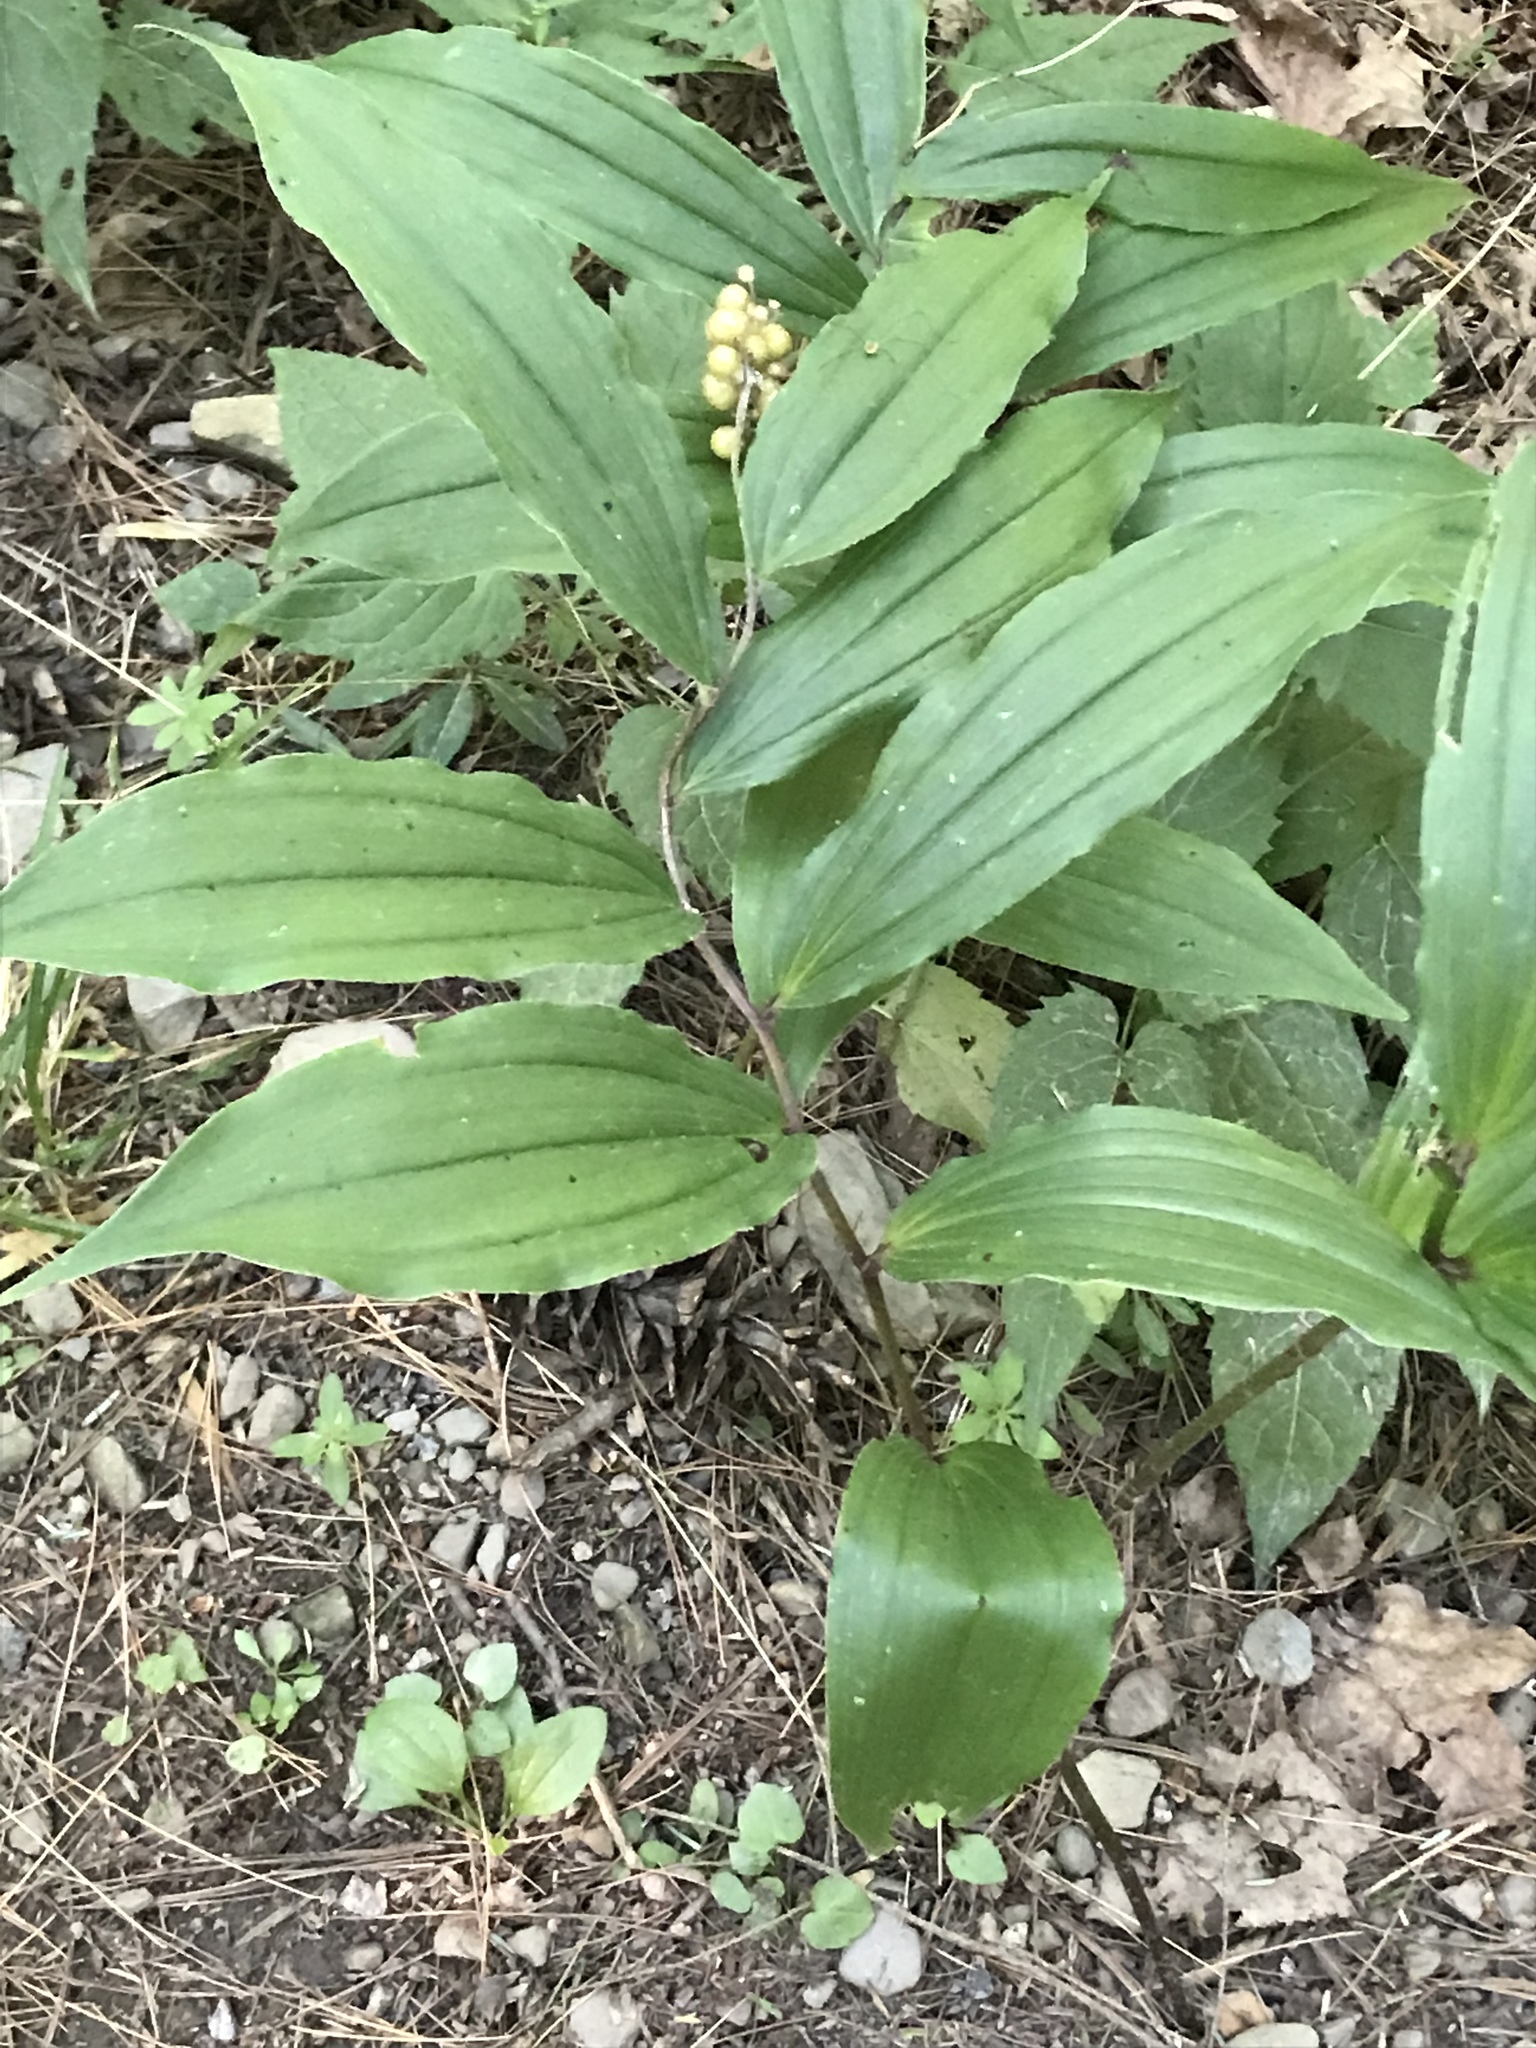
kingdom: Plantae
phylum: Tracheophyta
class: Liliopsida
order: Asparagales
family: Asparagaceae
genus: Maianthemum
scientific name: Maianthemum racemosum
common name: False spikenard
